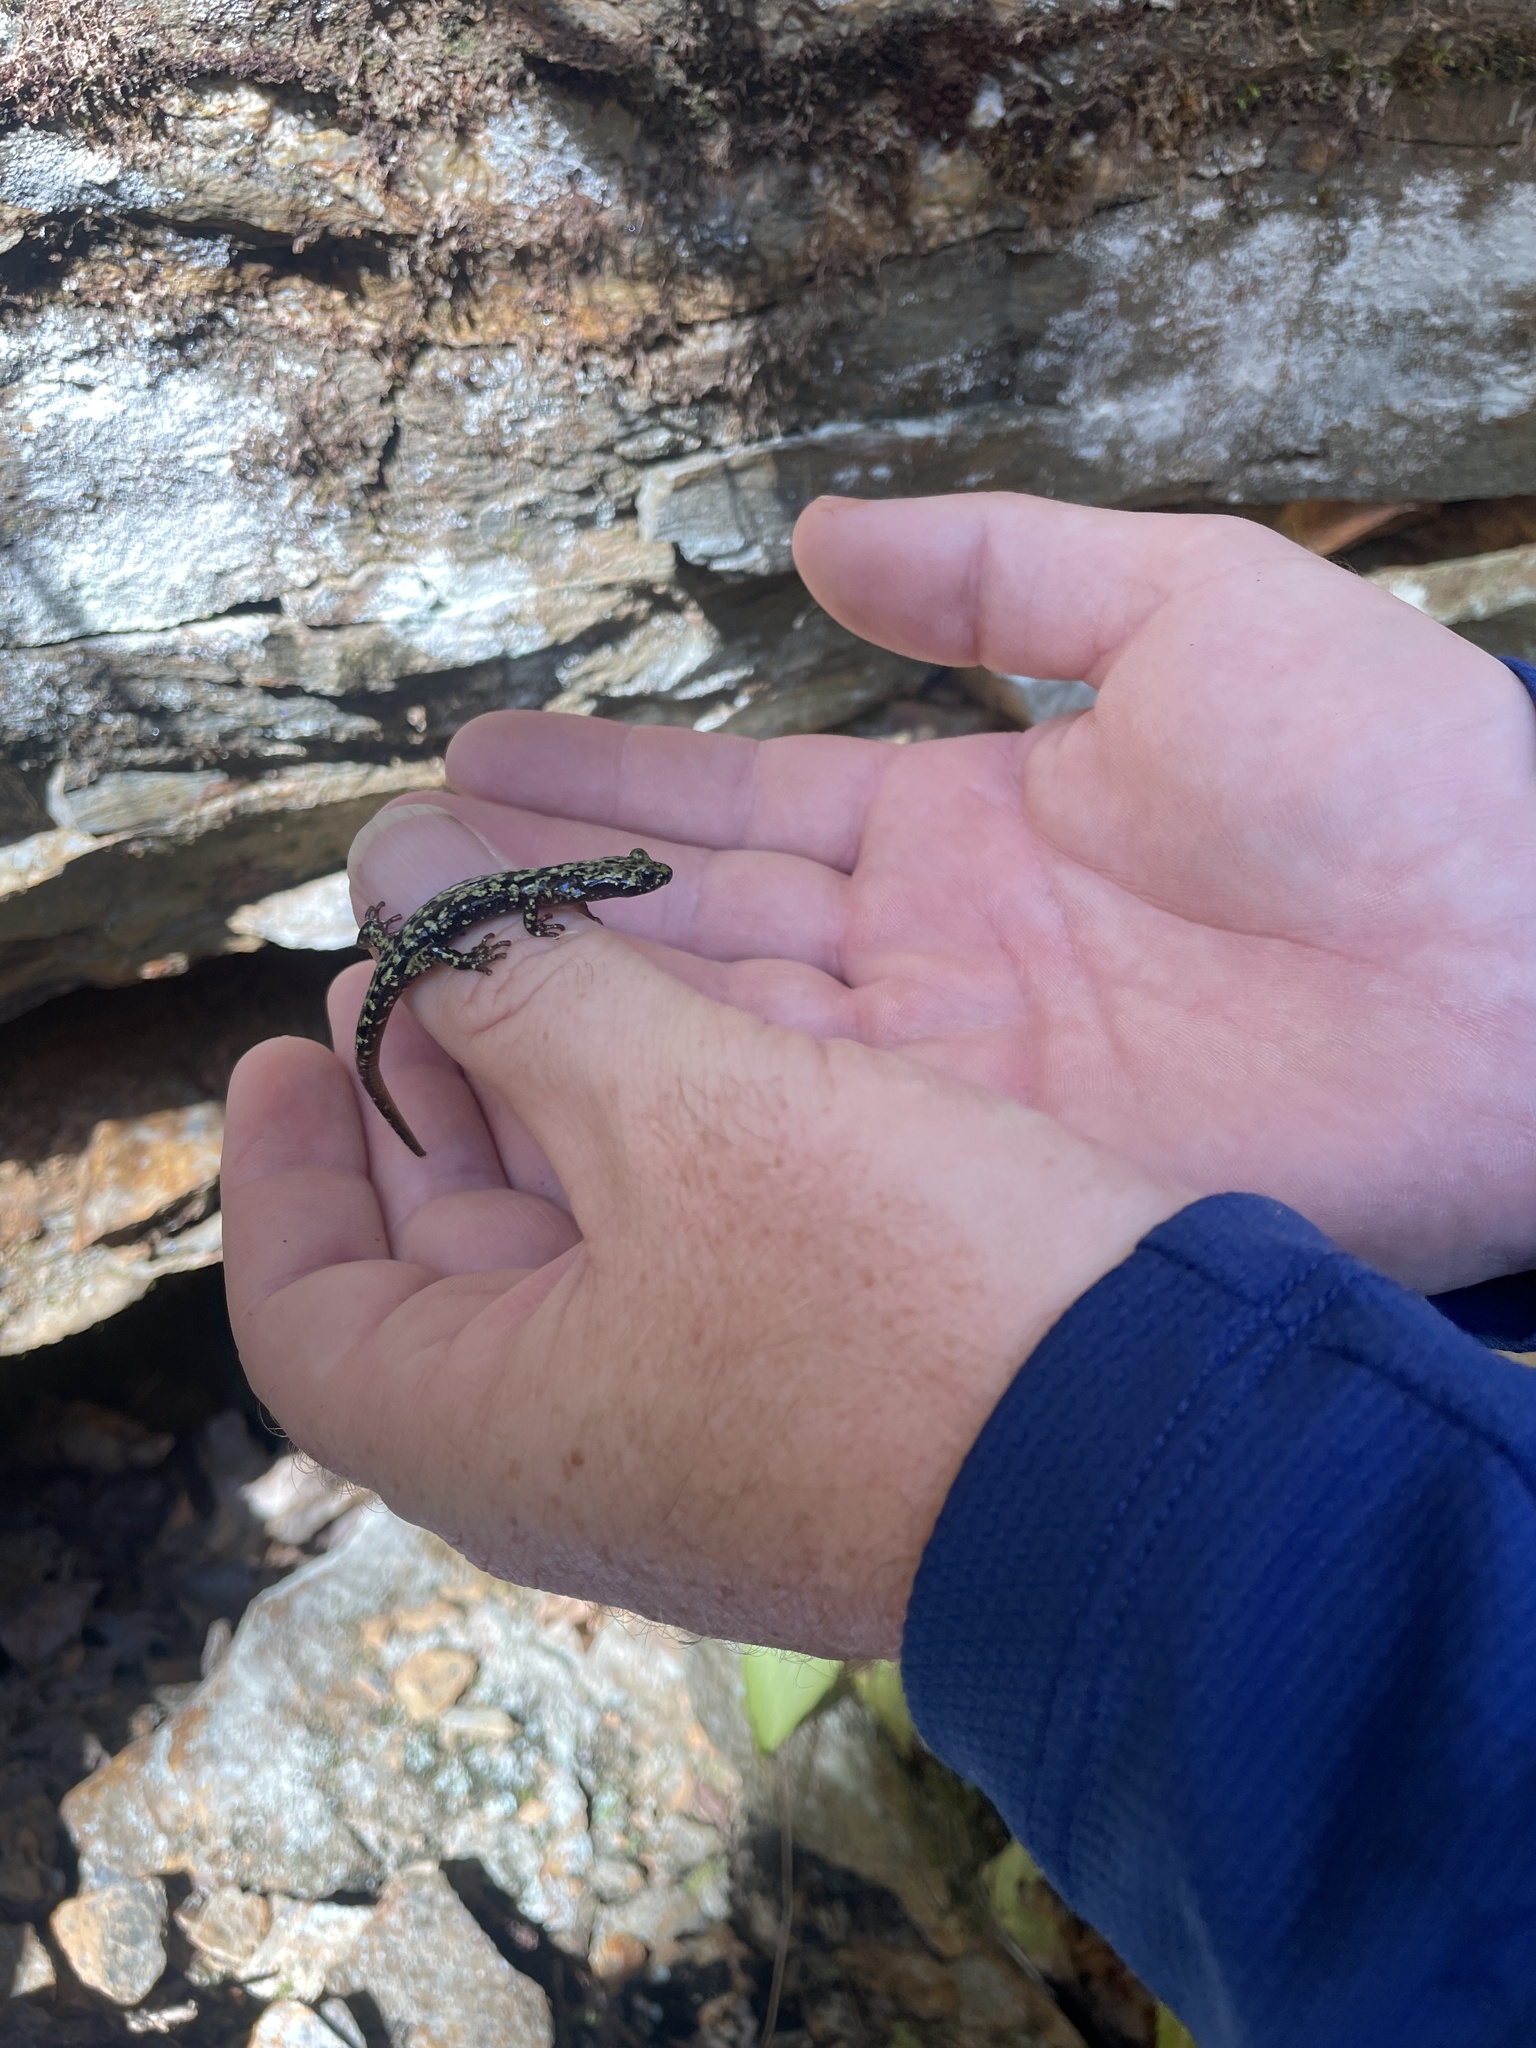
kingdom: Animalia
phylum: Chordata
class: Amphibia
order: Caudata
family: Plethodontidae
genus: Aneides
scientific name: Aneides aeneus
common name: Green salamander
